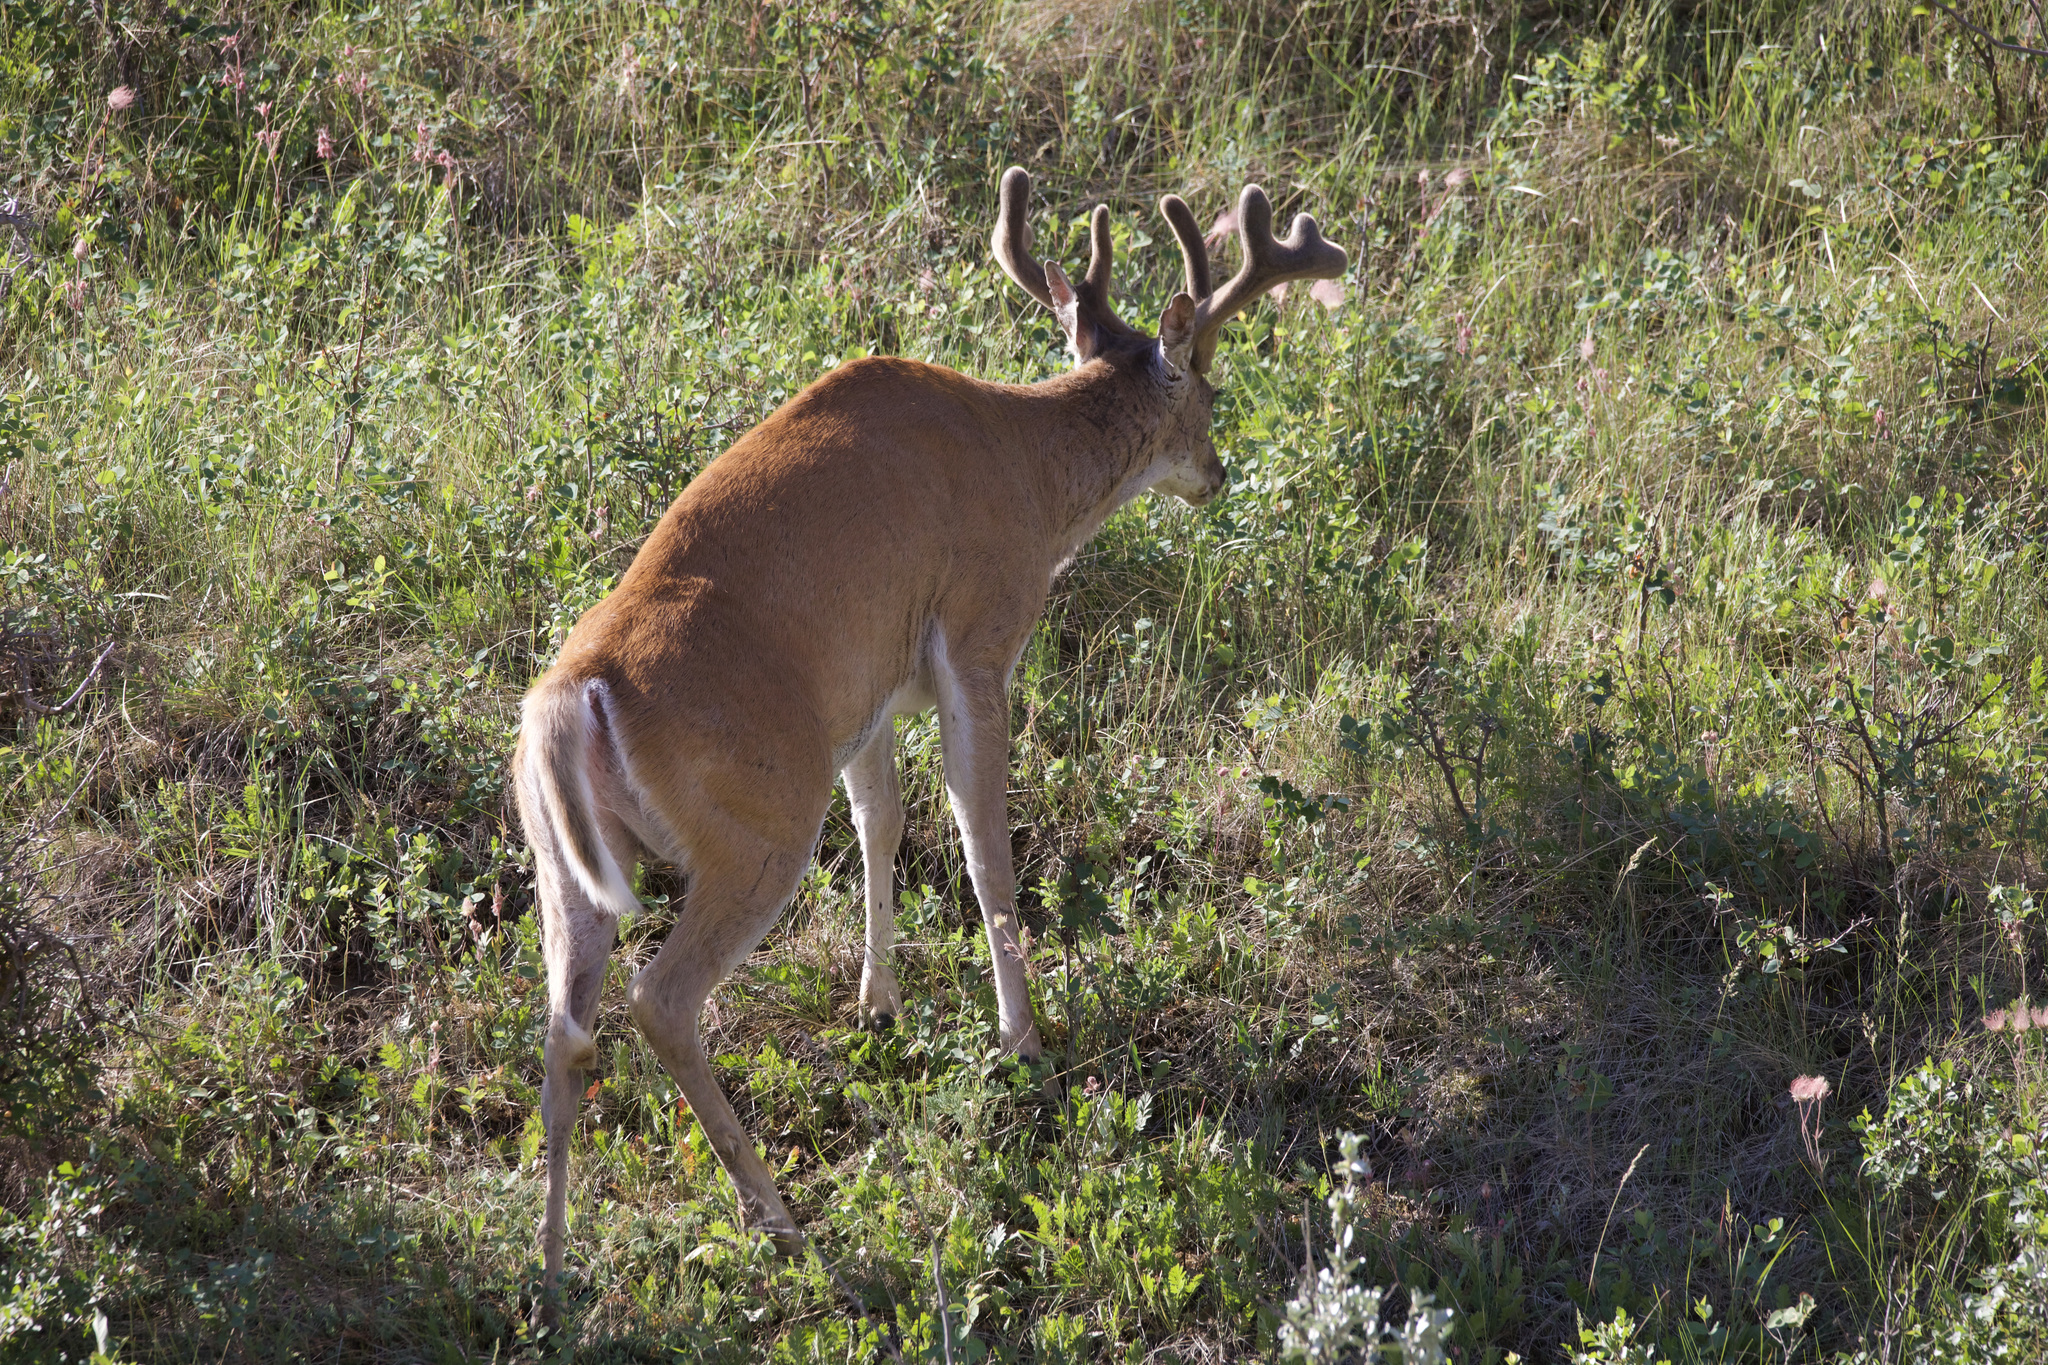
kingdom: Animalia
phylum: Chordata
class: Mammalia
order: Artiodactyla
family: Cervidae
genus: Odocoileus
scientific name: Odocoileus virginianus
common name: White-tailed deer
